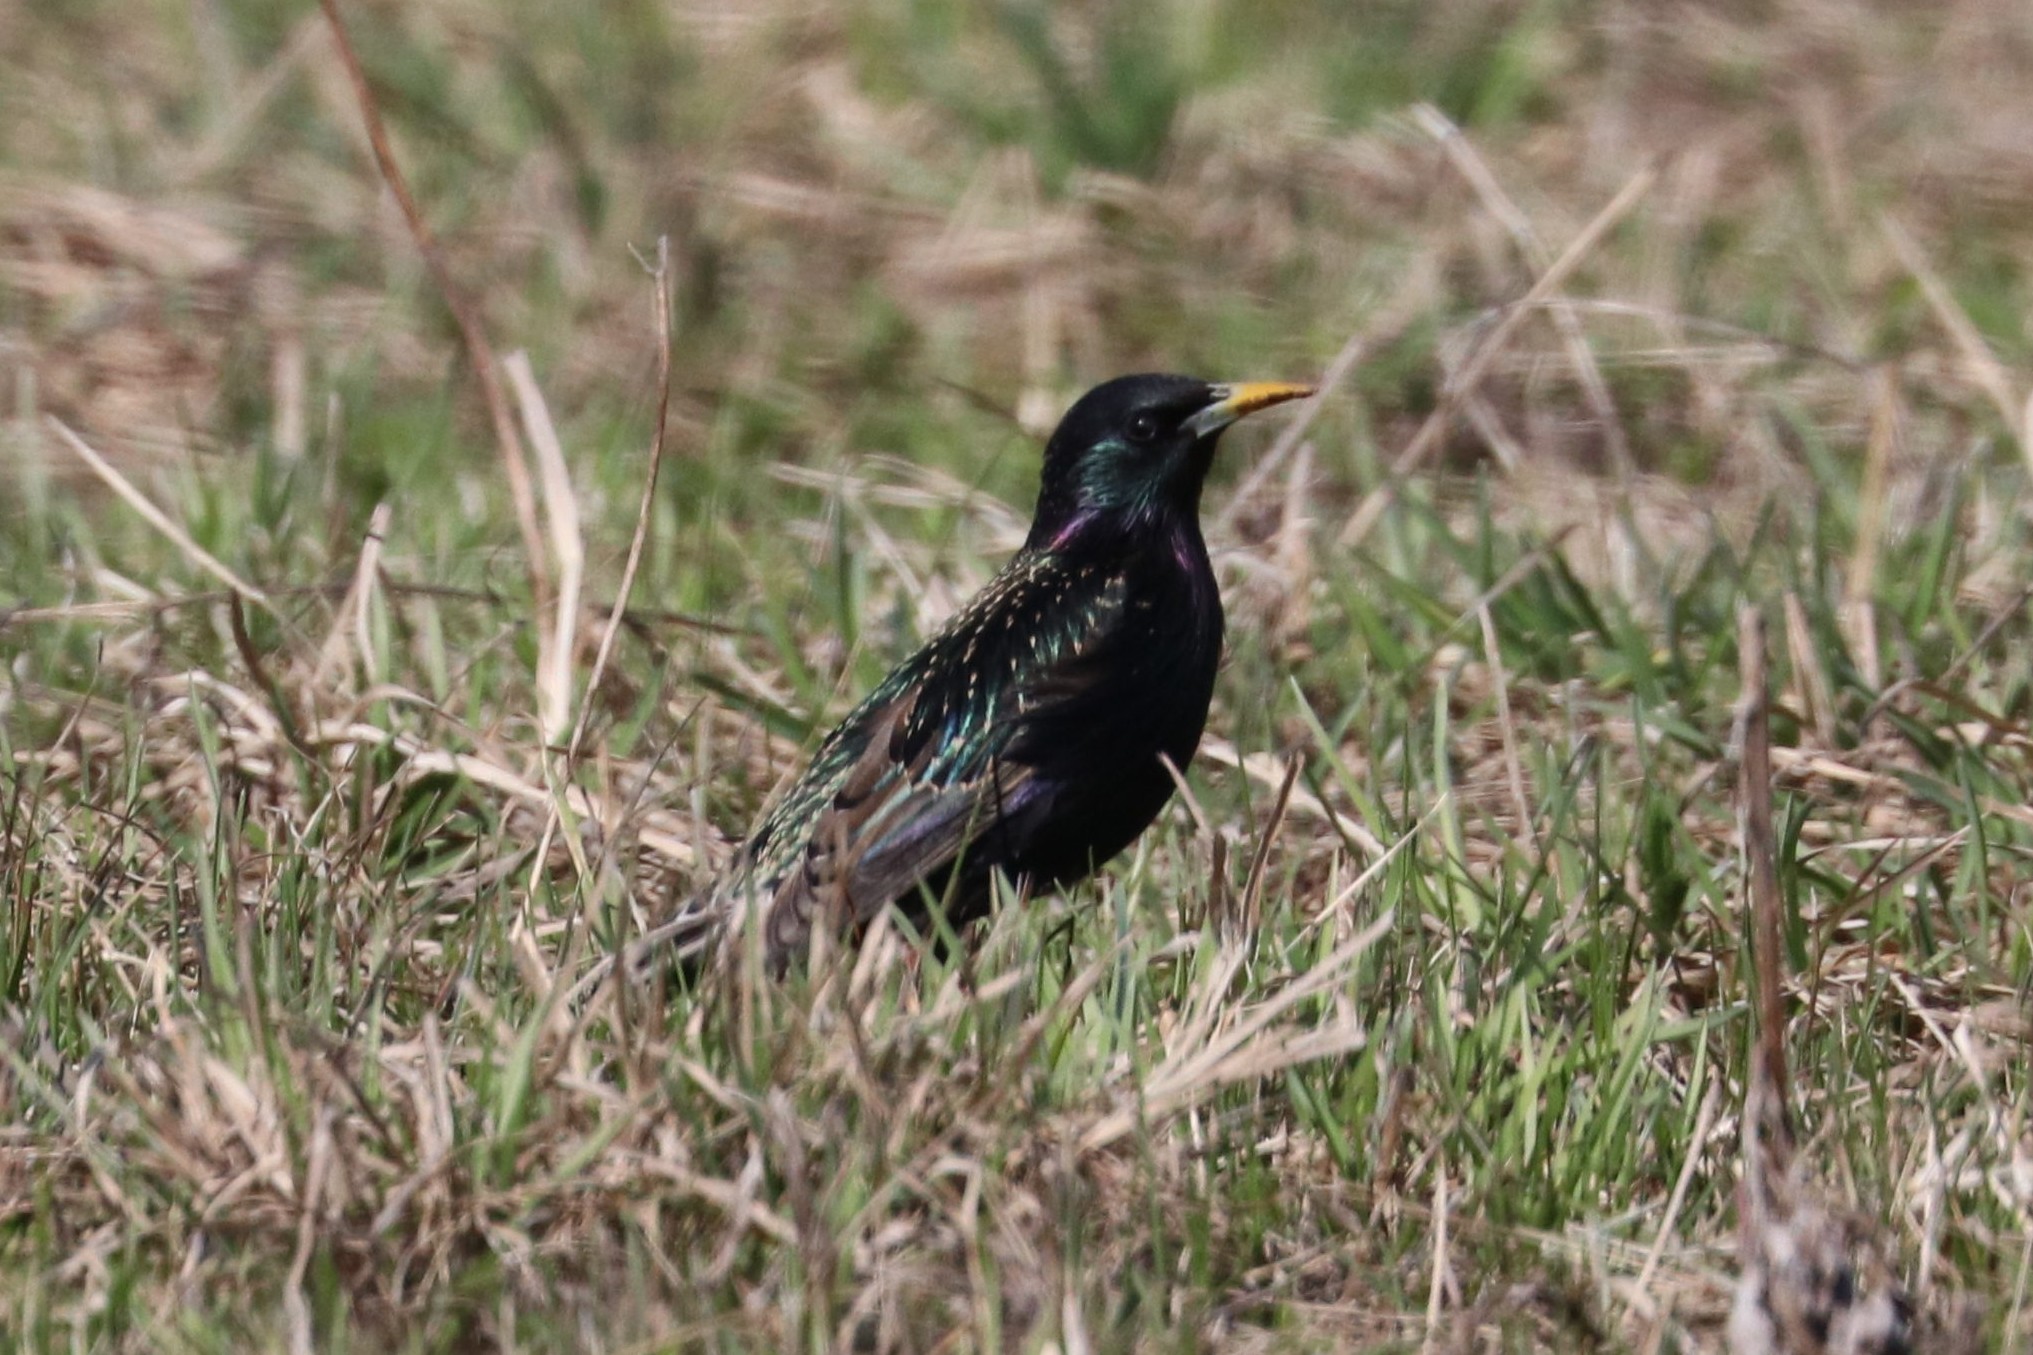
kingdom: Animalia
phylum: Chordata
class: Aves
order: Passeriformes
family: Sturnidae
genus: Sturnus
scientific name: Sturnus vulgaris
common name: Common starling
